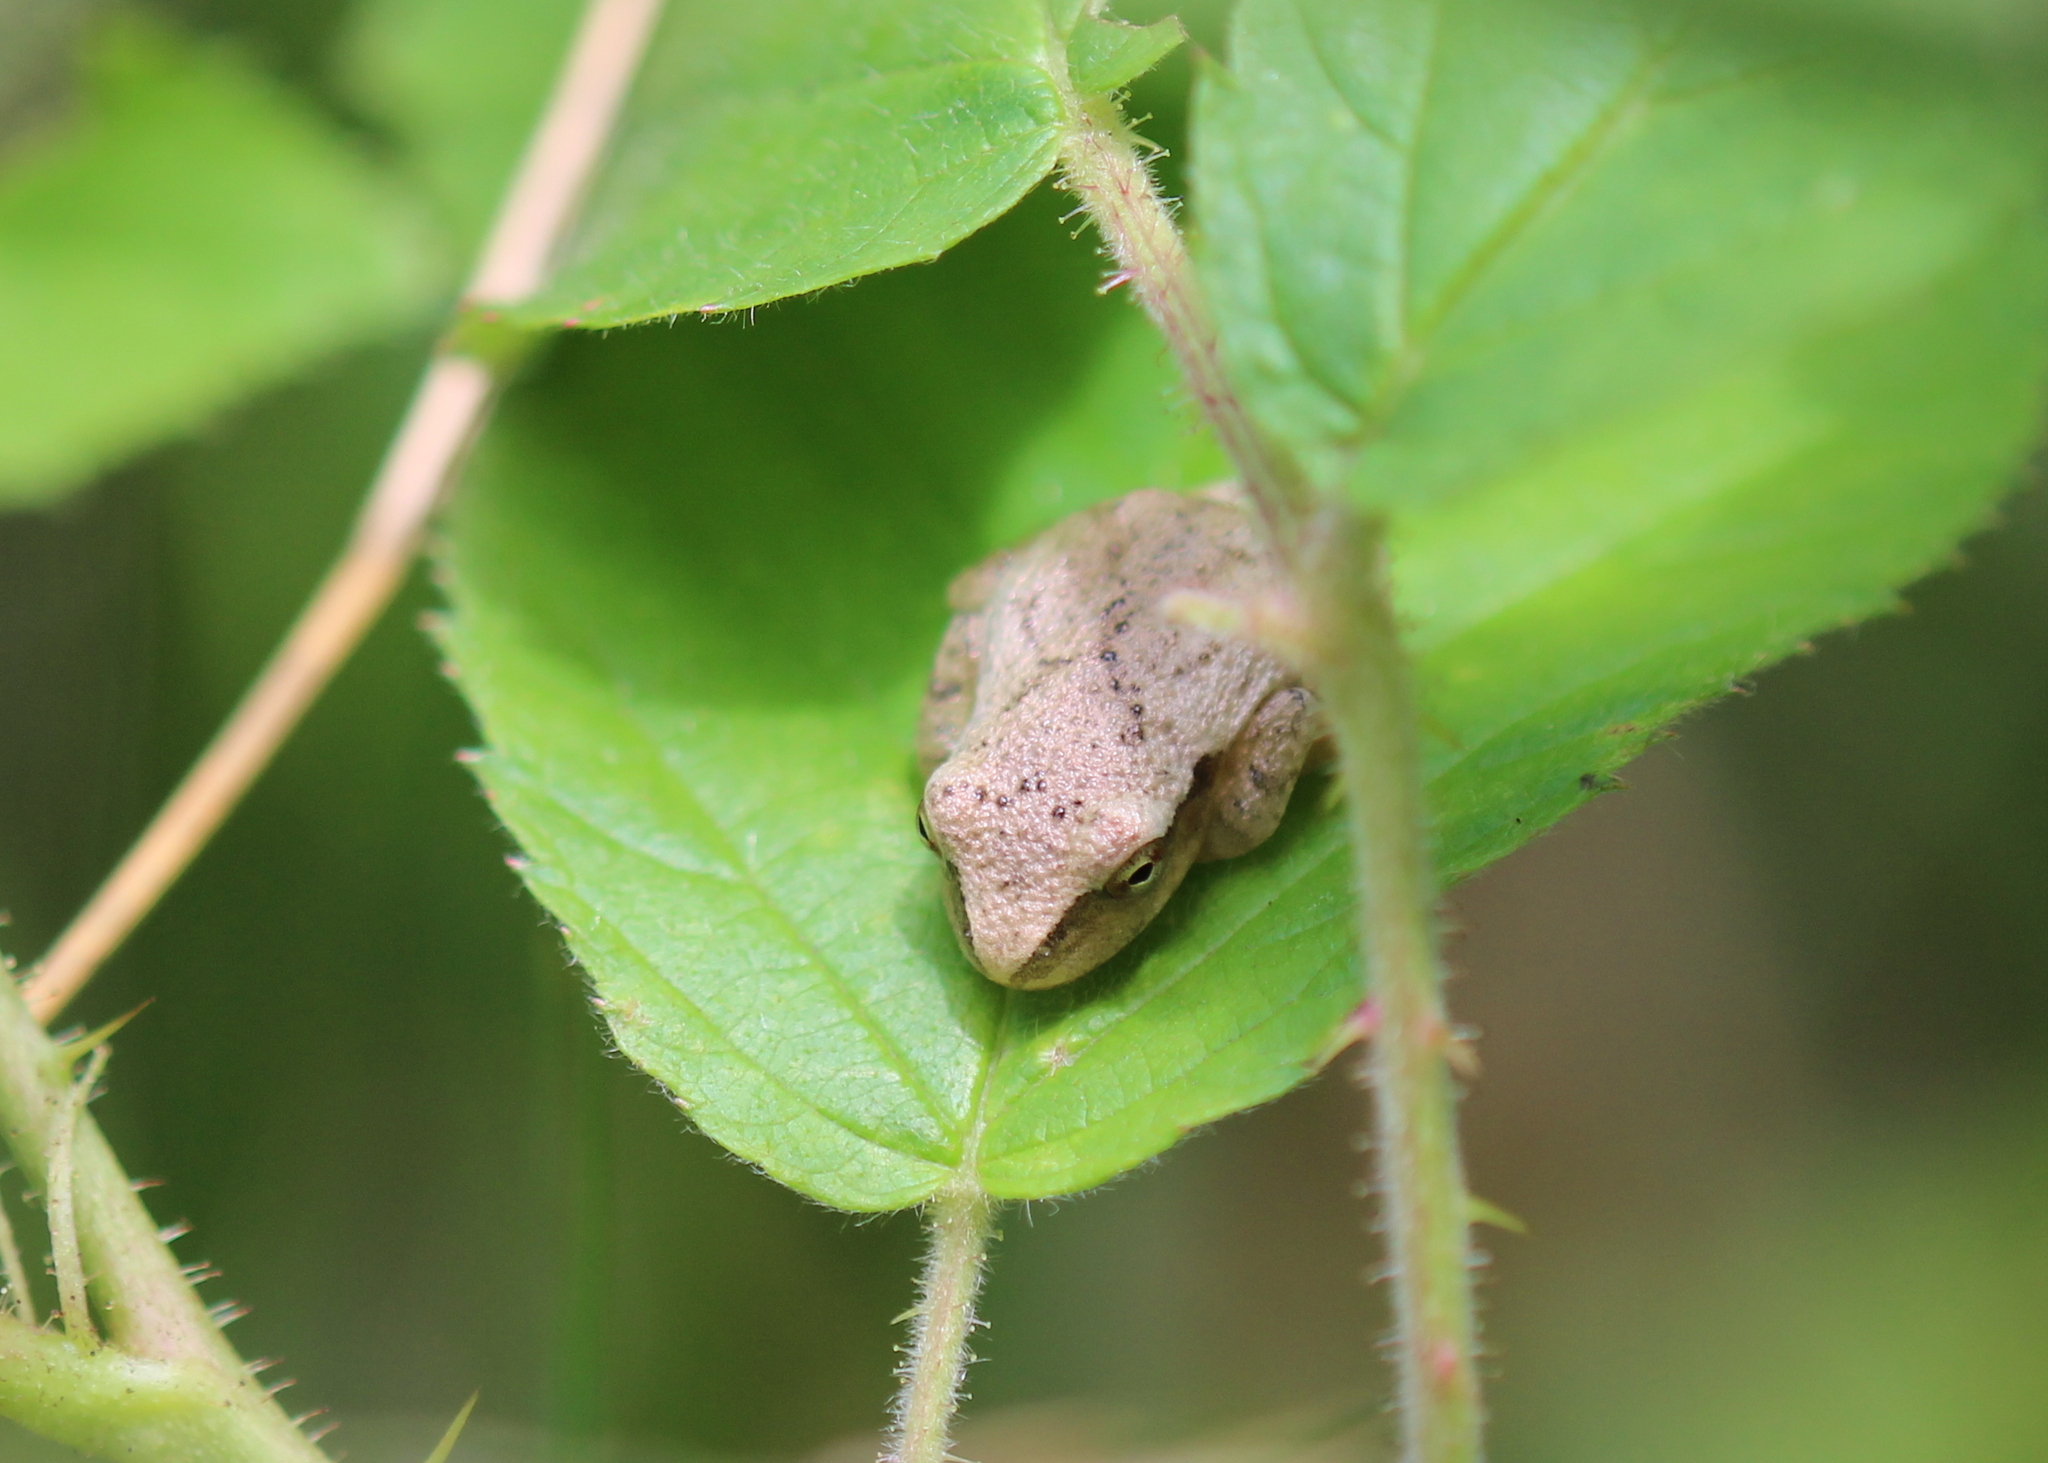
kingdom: Animalia
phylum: Chordata
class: Amphibia
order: Anura
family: Hylidae
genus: Pseudacris
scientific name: Pseudacris crucifer
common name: Spring peeper
